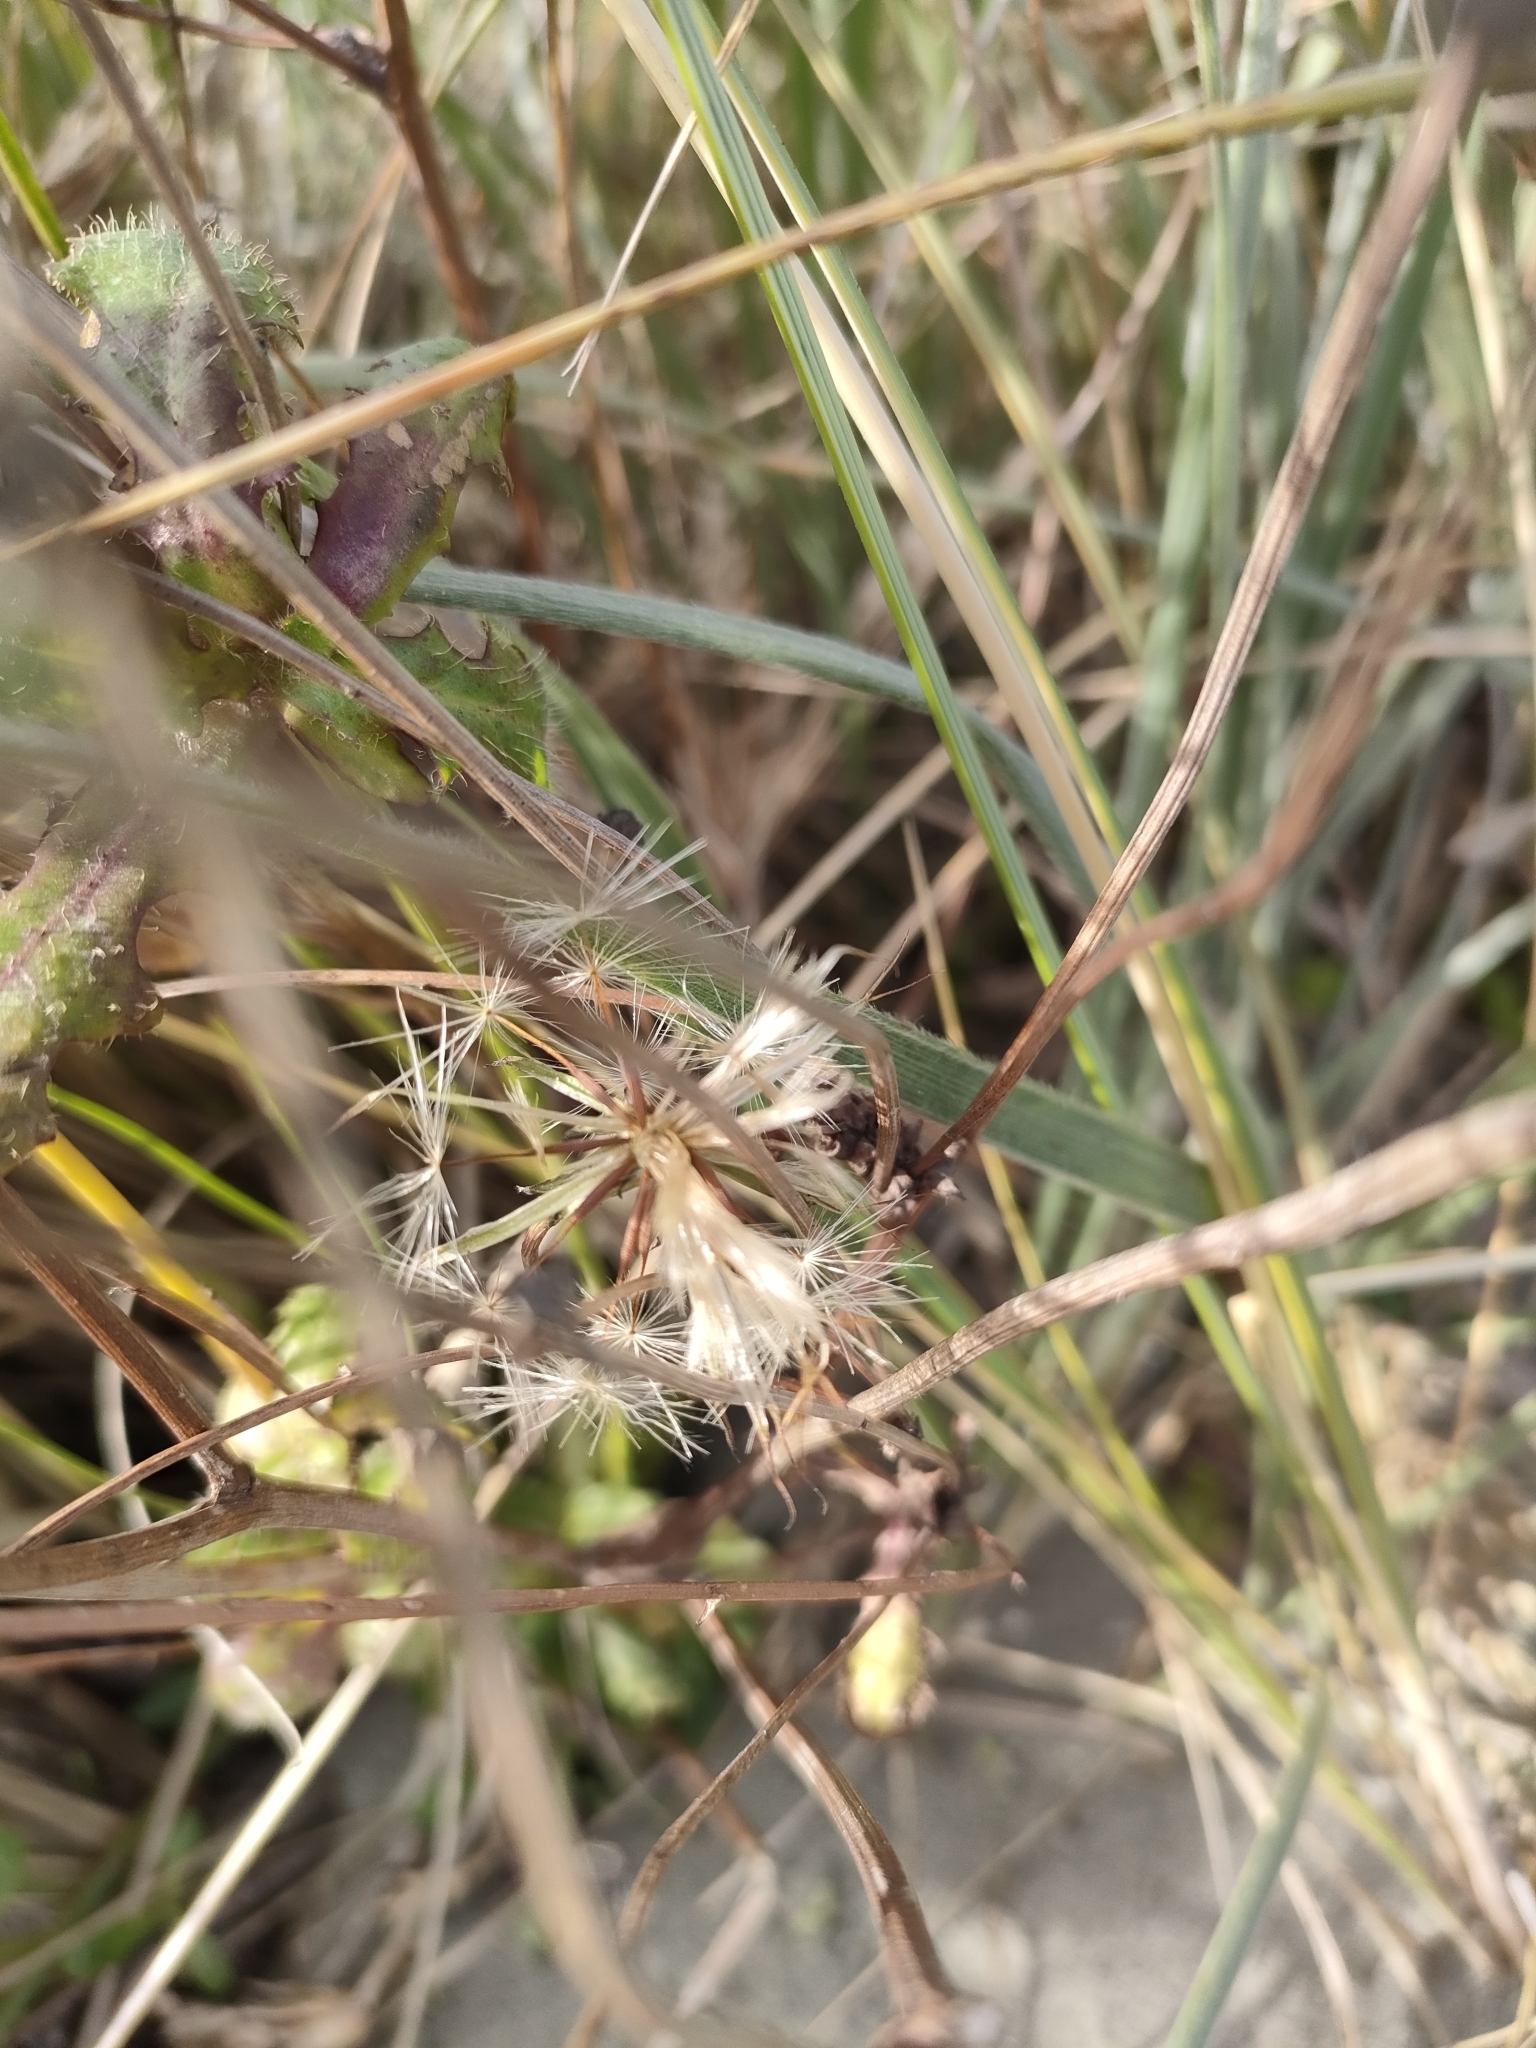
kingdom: Plantae
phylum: Tracheophyta
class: Magnoliopsida
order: Asterales
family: Asteraceae
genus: Hypochaeris
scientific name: Hypochaeris radicata
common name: Flatweed
